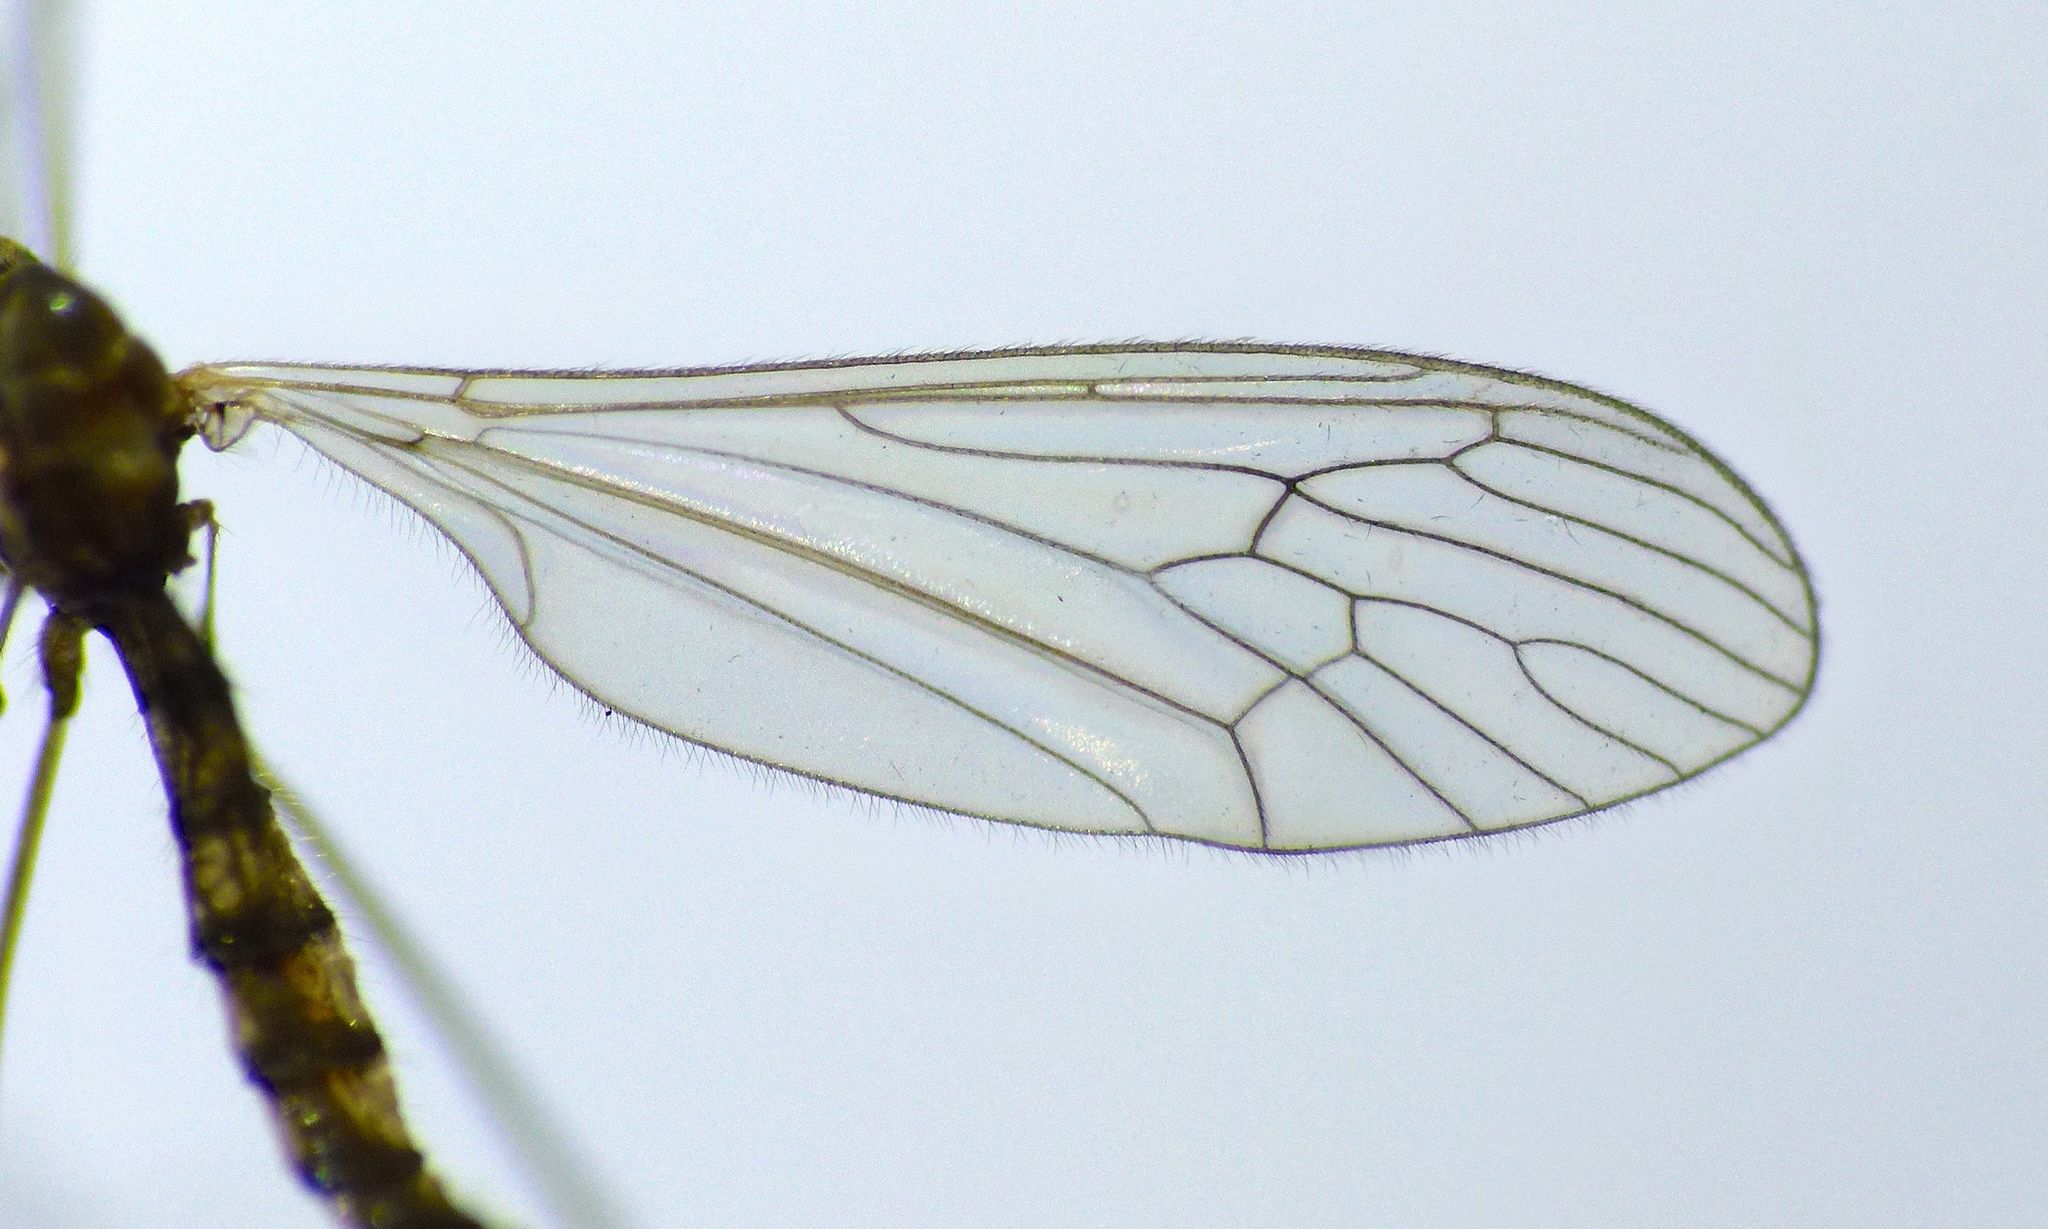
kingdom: Animalia
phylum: Arthropoda
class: Insecta
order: Diptera
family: Trichoceridae
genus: Trichocera
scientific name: Trichocera annulata
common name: Winter gnat
